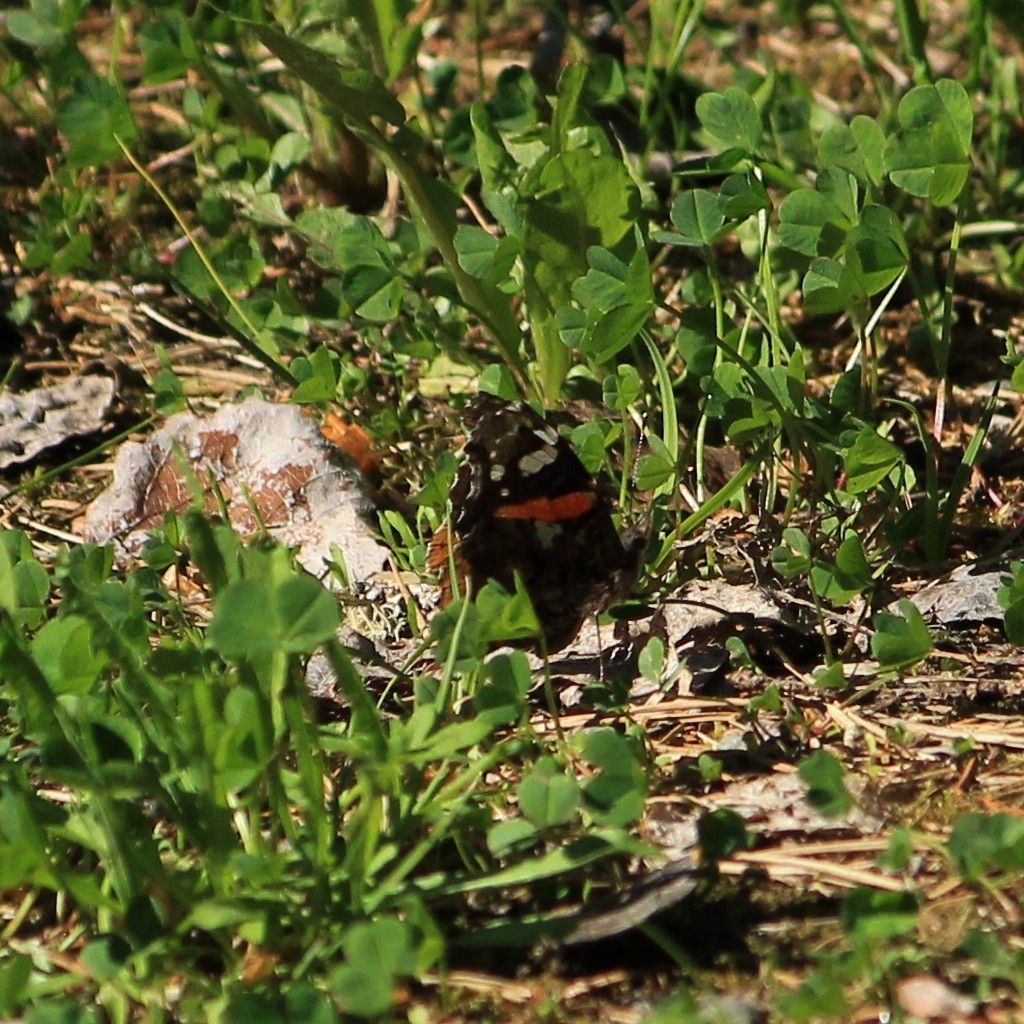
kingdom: Animalia
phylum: Arthropoda
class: Insecta
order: Lepidoptera
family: Nymphalidae
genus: Vanessa
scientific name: Vanessa atalanta
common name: Red admiral
